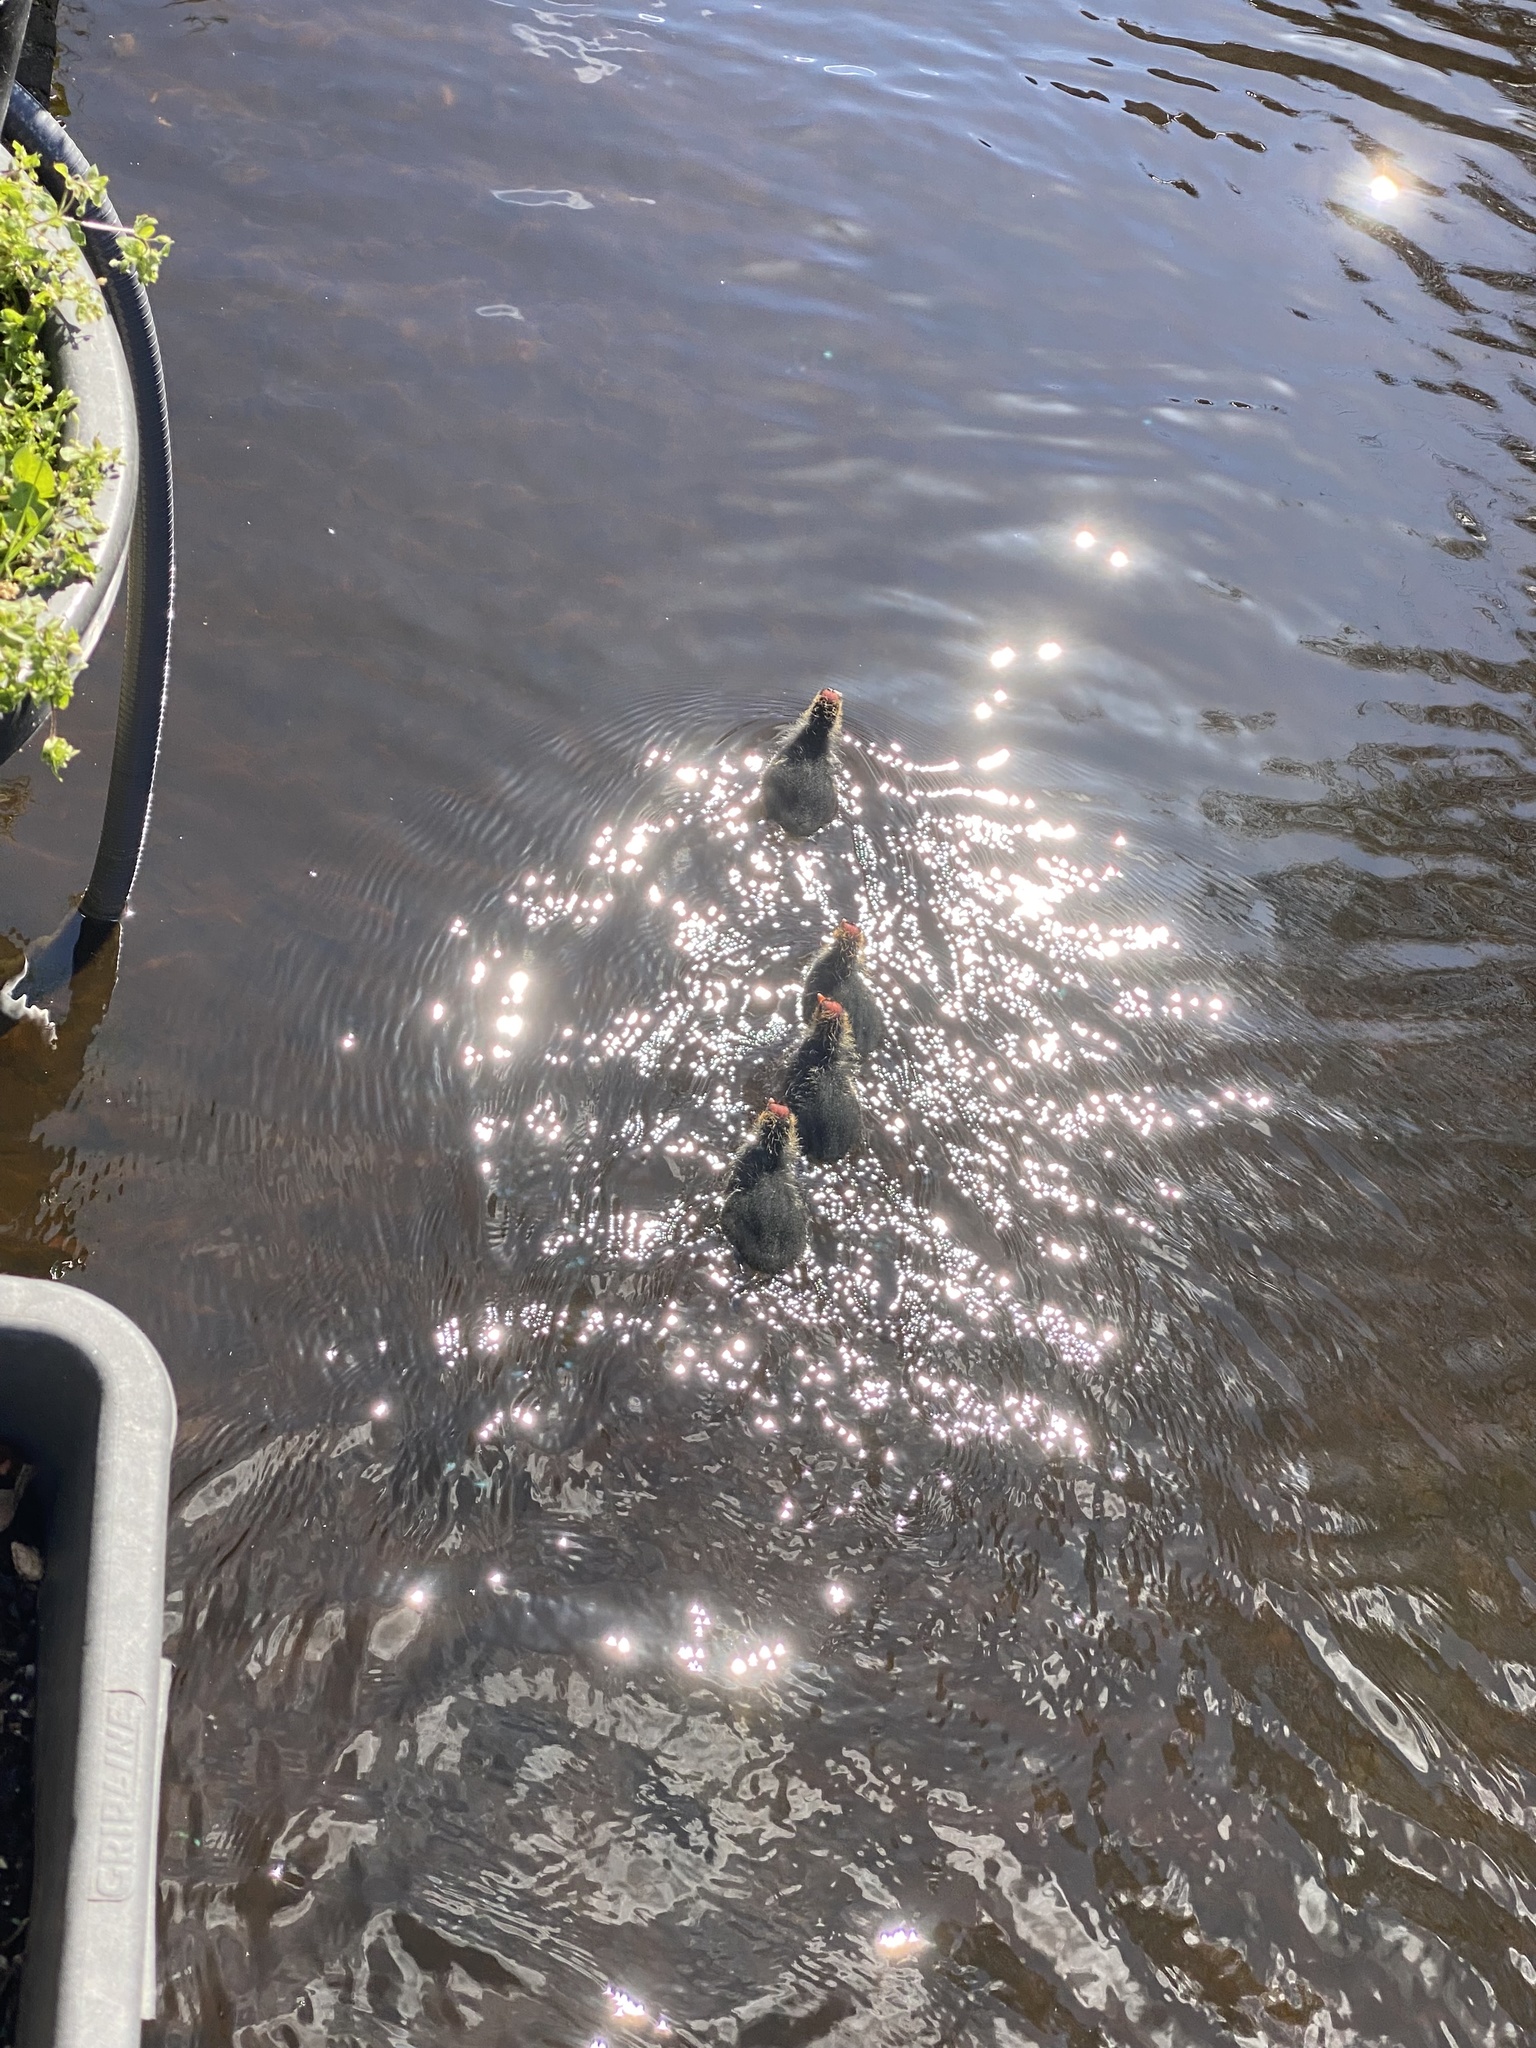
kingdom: Animalia
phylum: Chordata
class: Aves
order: Gruiformes
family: Rallidae
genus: Fulica
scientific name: Fulica atra
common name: Eurasian coot
